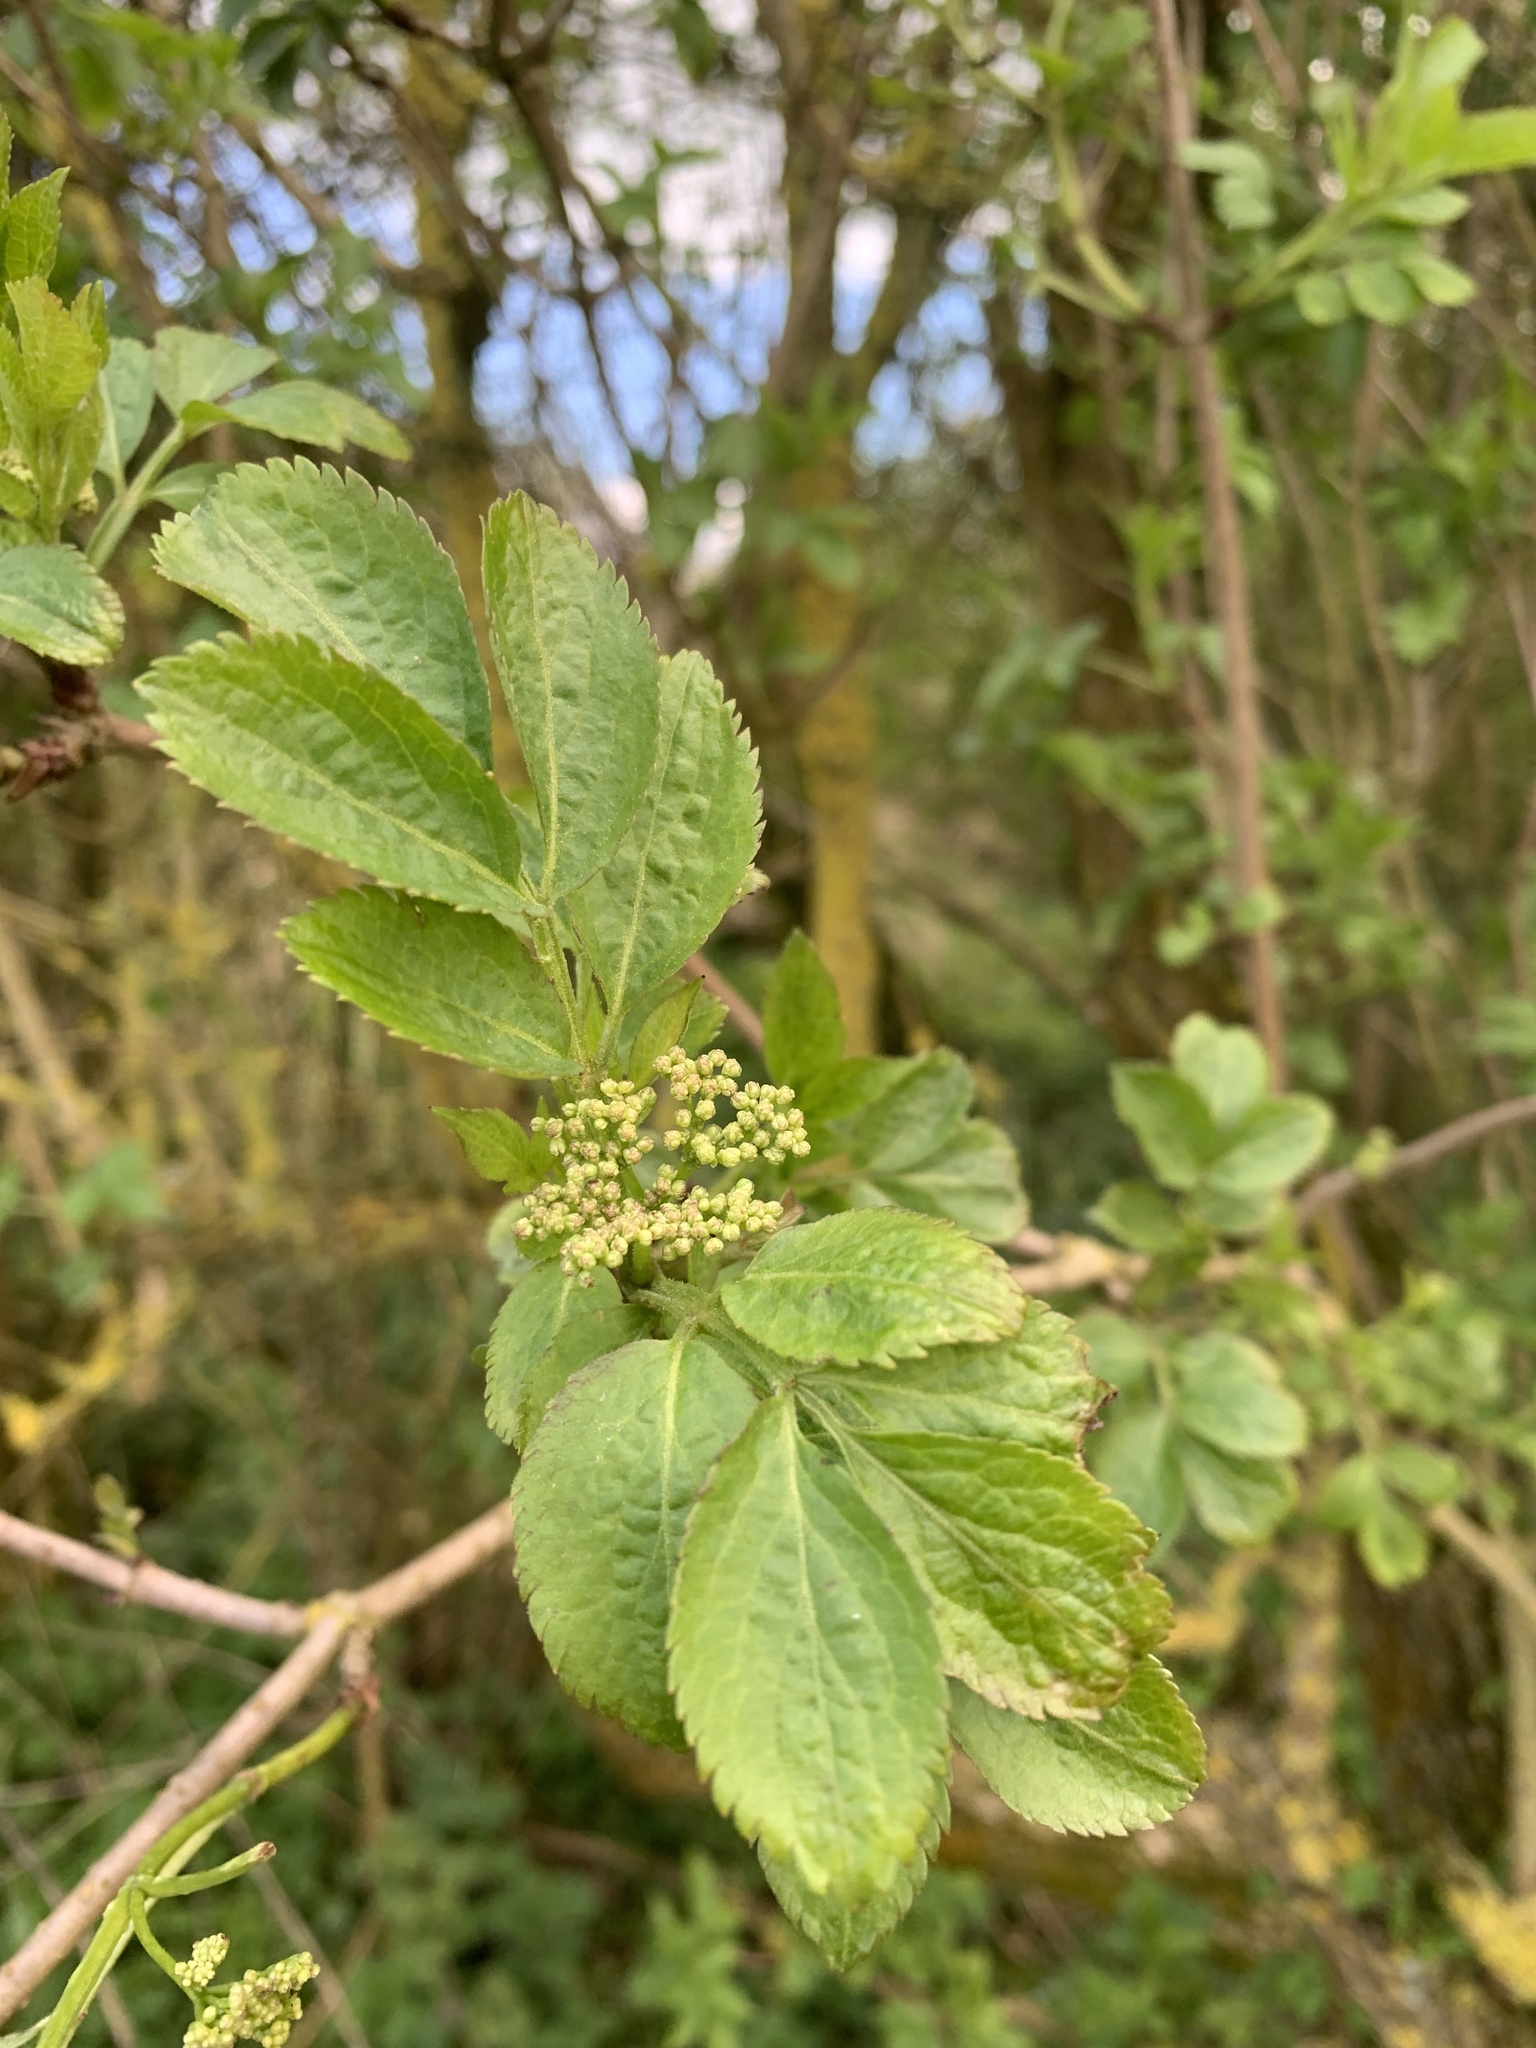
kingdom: Plantae
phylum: Tracheophyta
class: Magnoliopsida
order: Dipsacales
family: Viburnaceae
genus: Sambucus
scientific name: Sambucus nigra
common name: Elder
